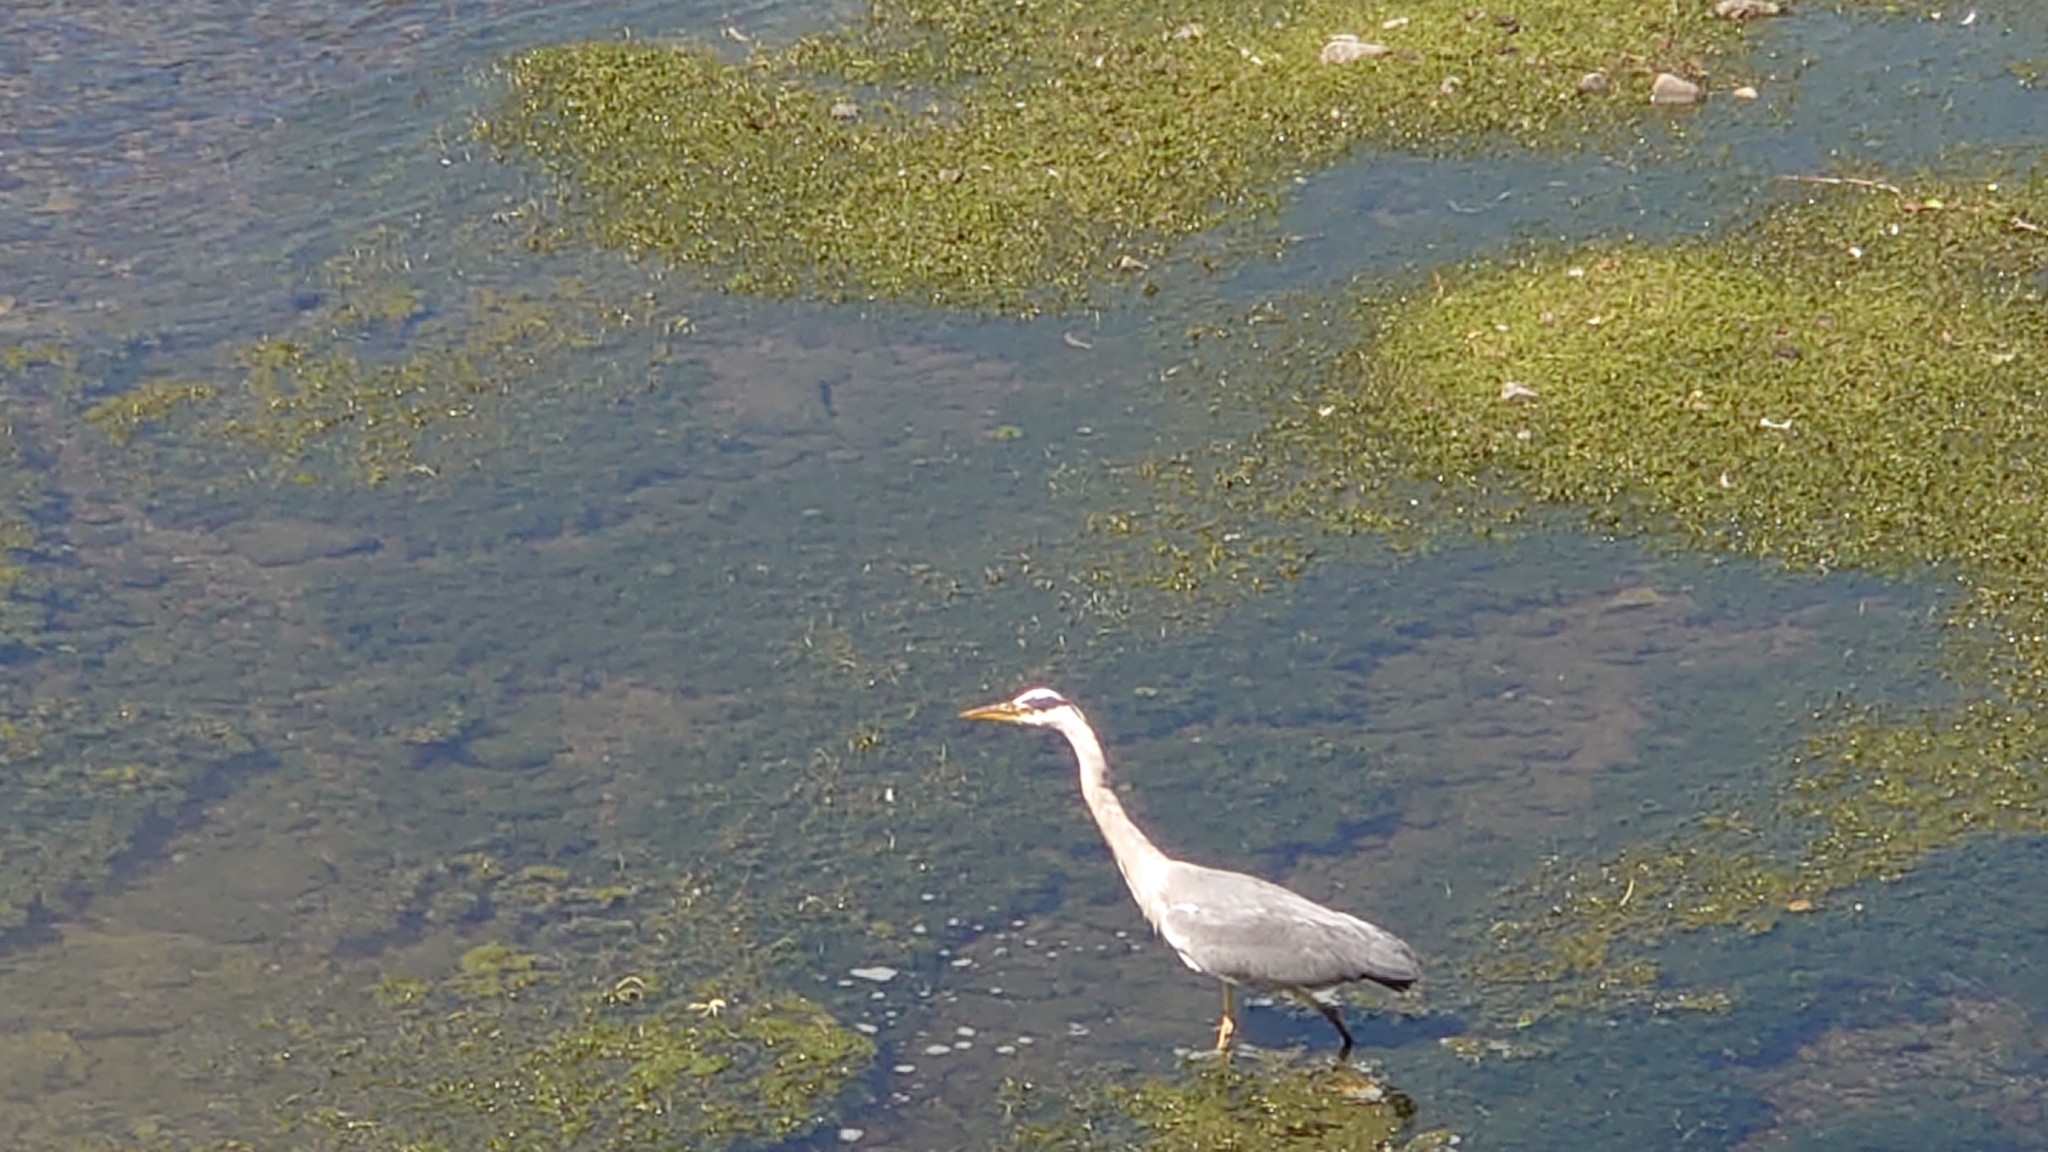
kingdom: Animalia
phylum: Chordata
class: Aves
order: Pelecaniformes
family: Ardeidae
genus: Ardea
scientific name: Ardea cinerea
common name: Grey heron
